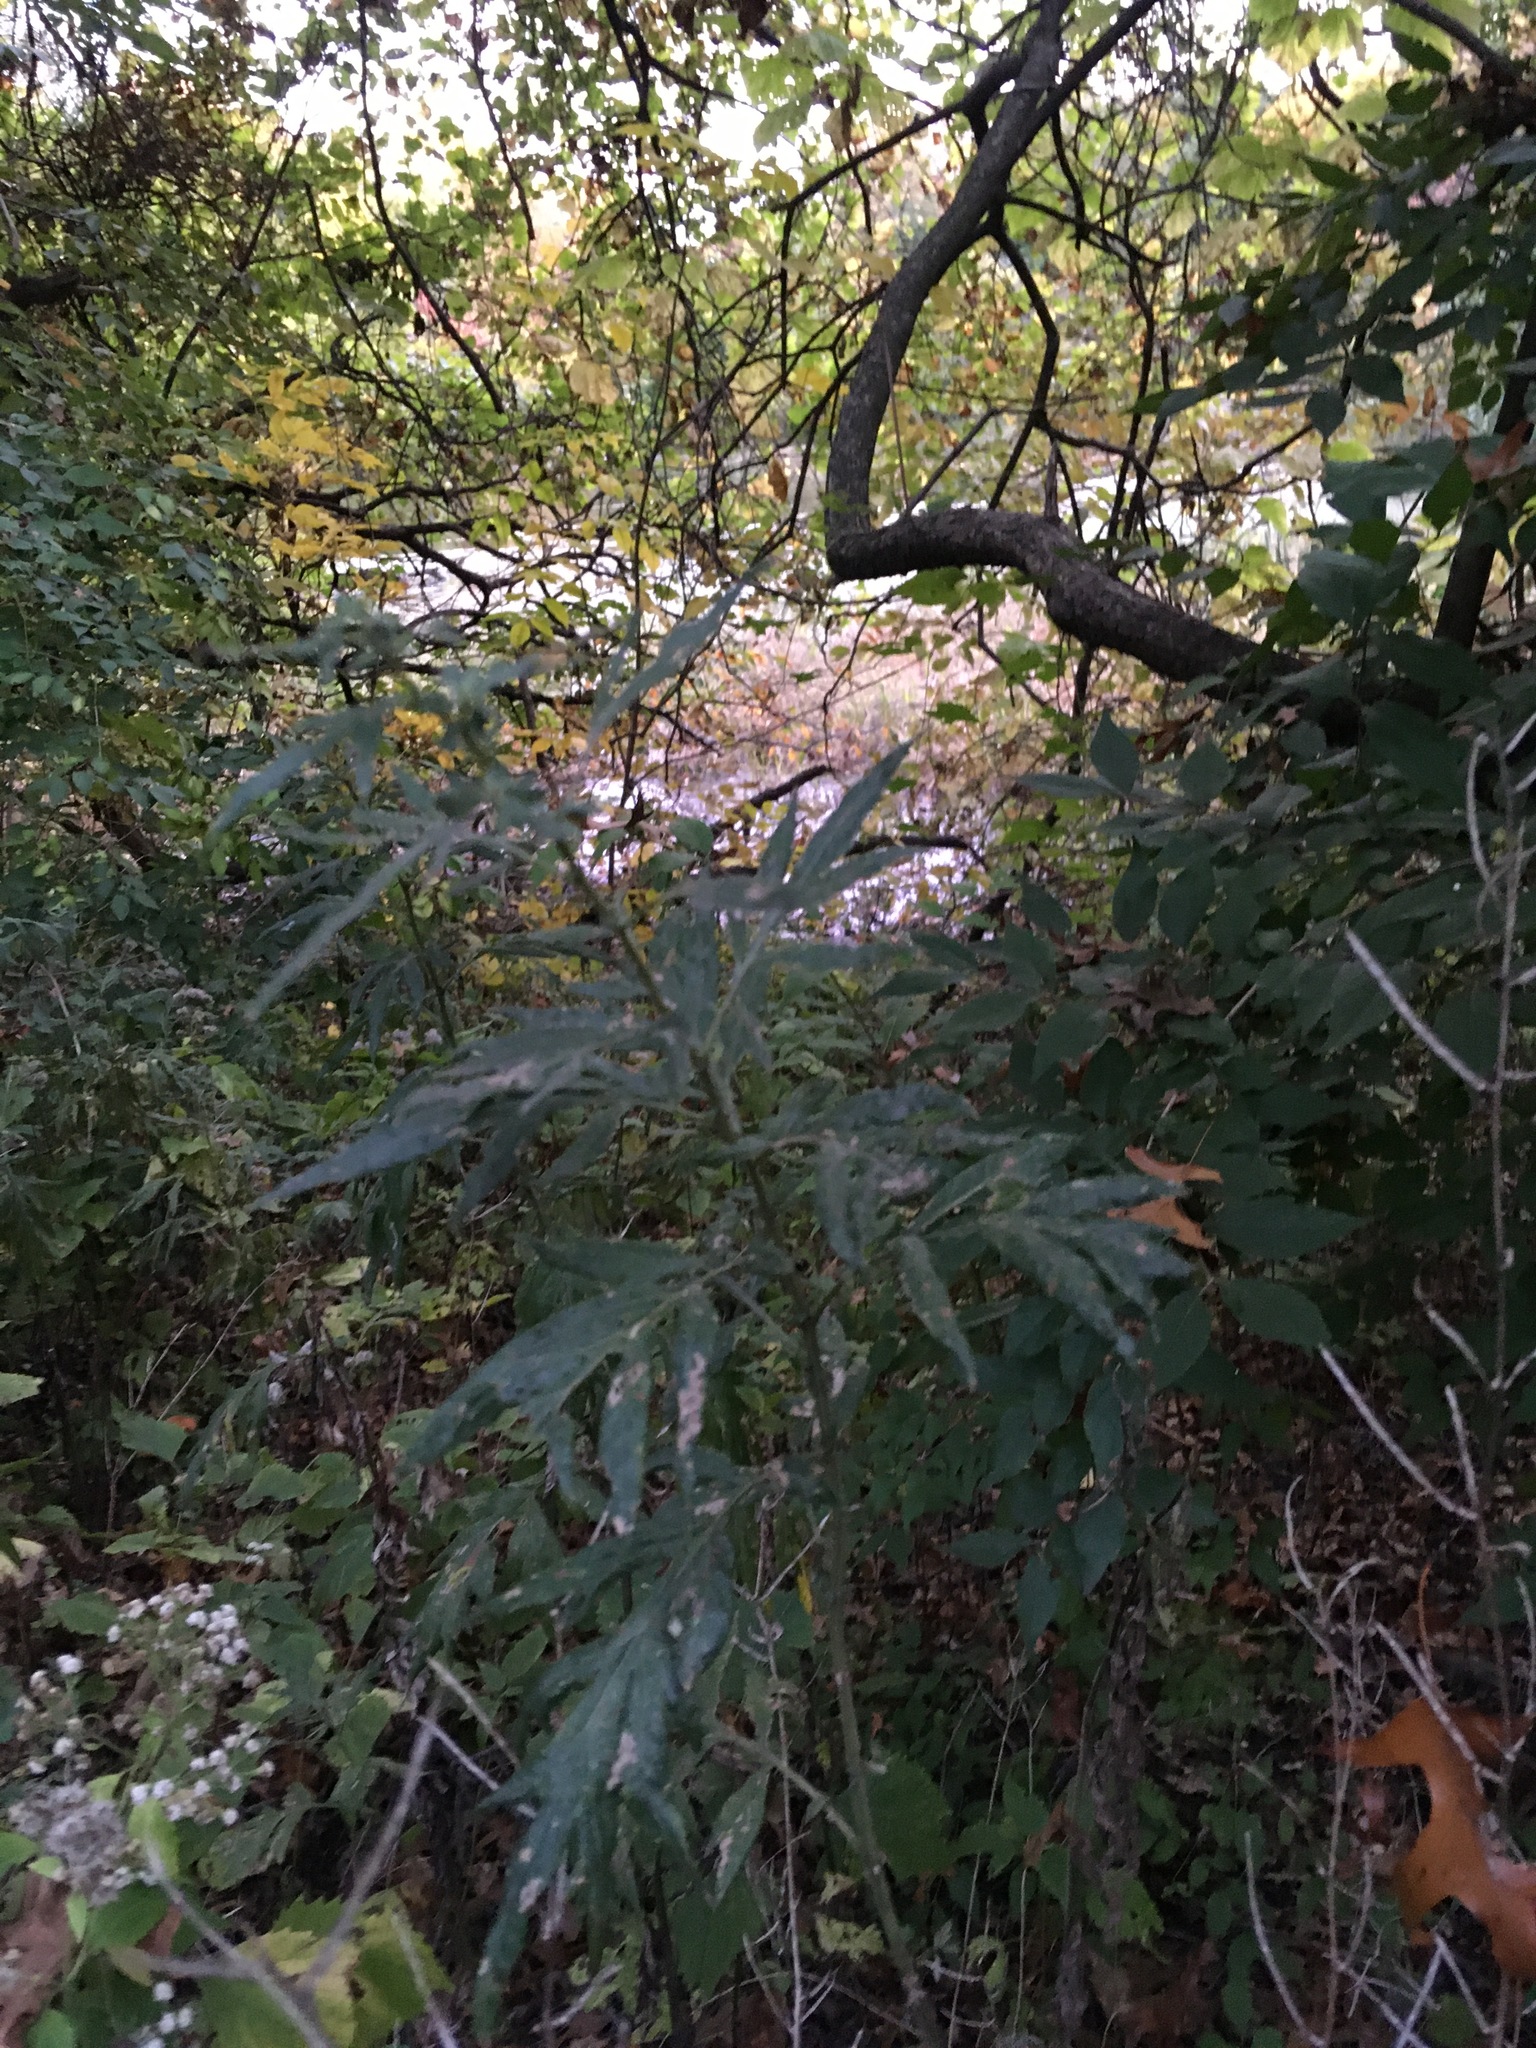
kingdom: Plantae
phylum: Tracheophyta
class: Magnoliopsida
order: Asterales
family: Asteraceae
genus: Artemisia
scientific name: Artemisia vulgaris
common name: Mugwort
